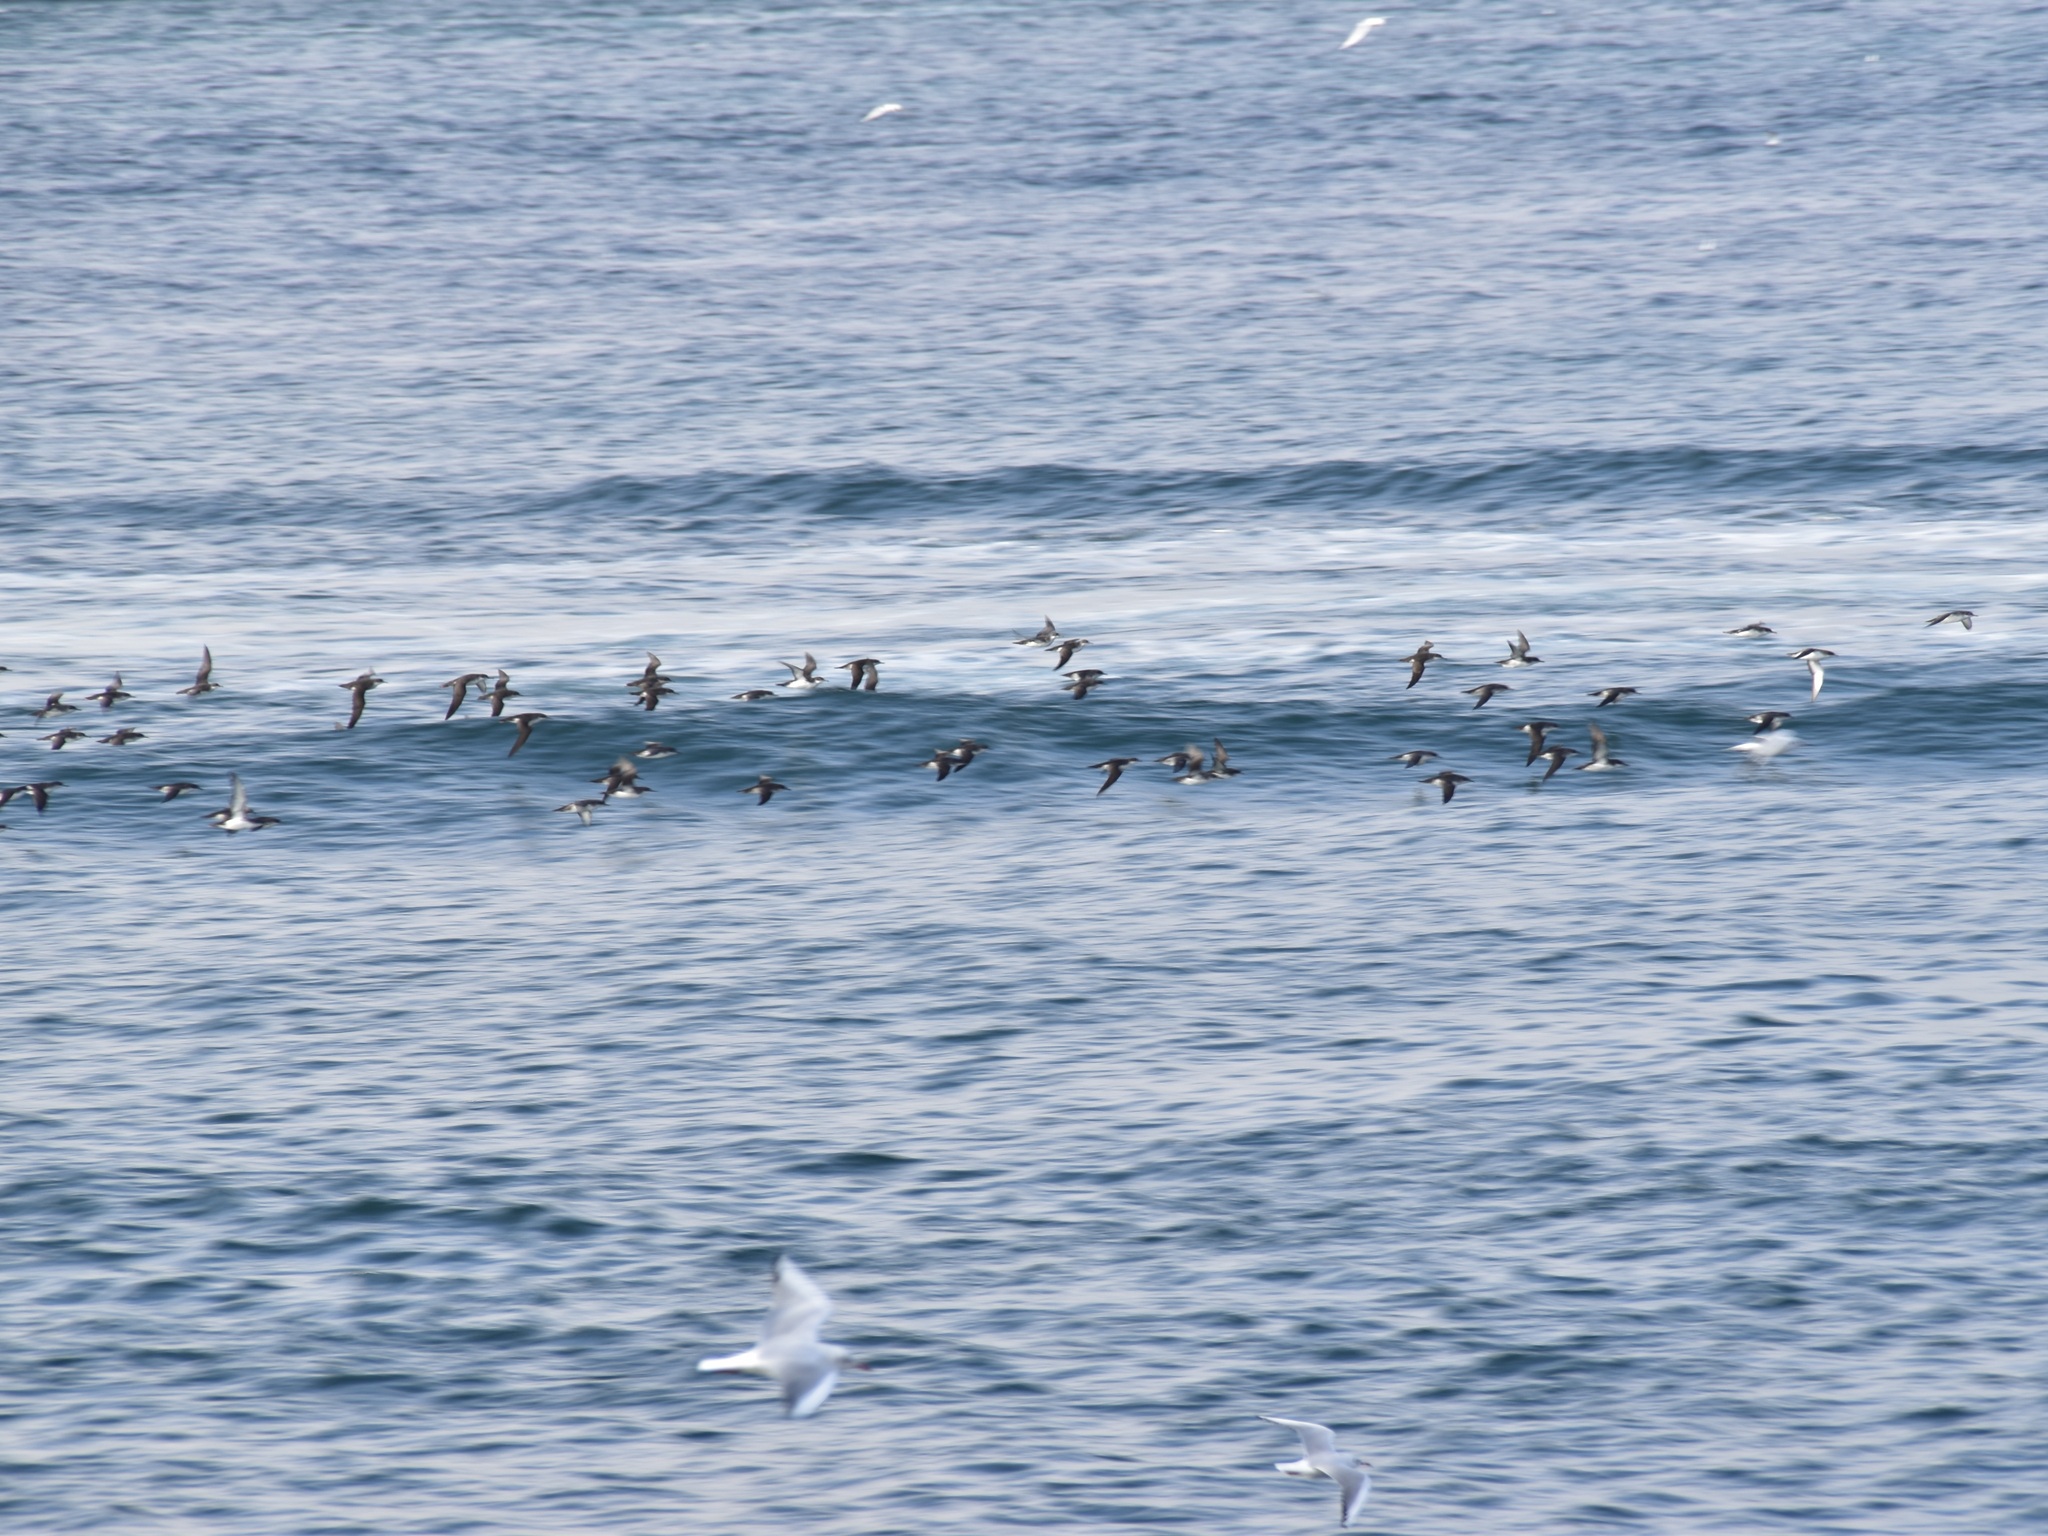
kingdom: Animalia
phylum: Chordata
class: Aves
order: Procellariiformes
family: Procellariidae
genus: Puffinus
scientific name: Puffinus yelkouan
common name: Yelkouan shearwater
